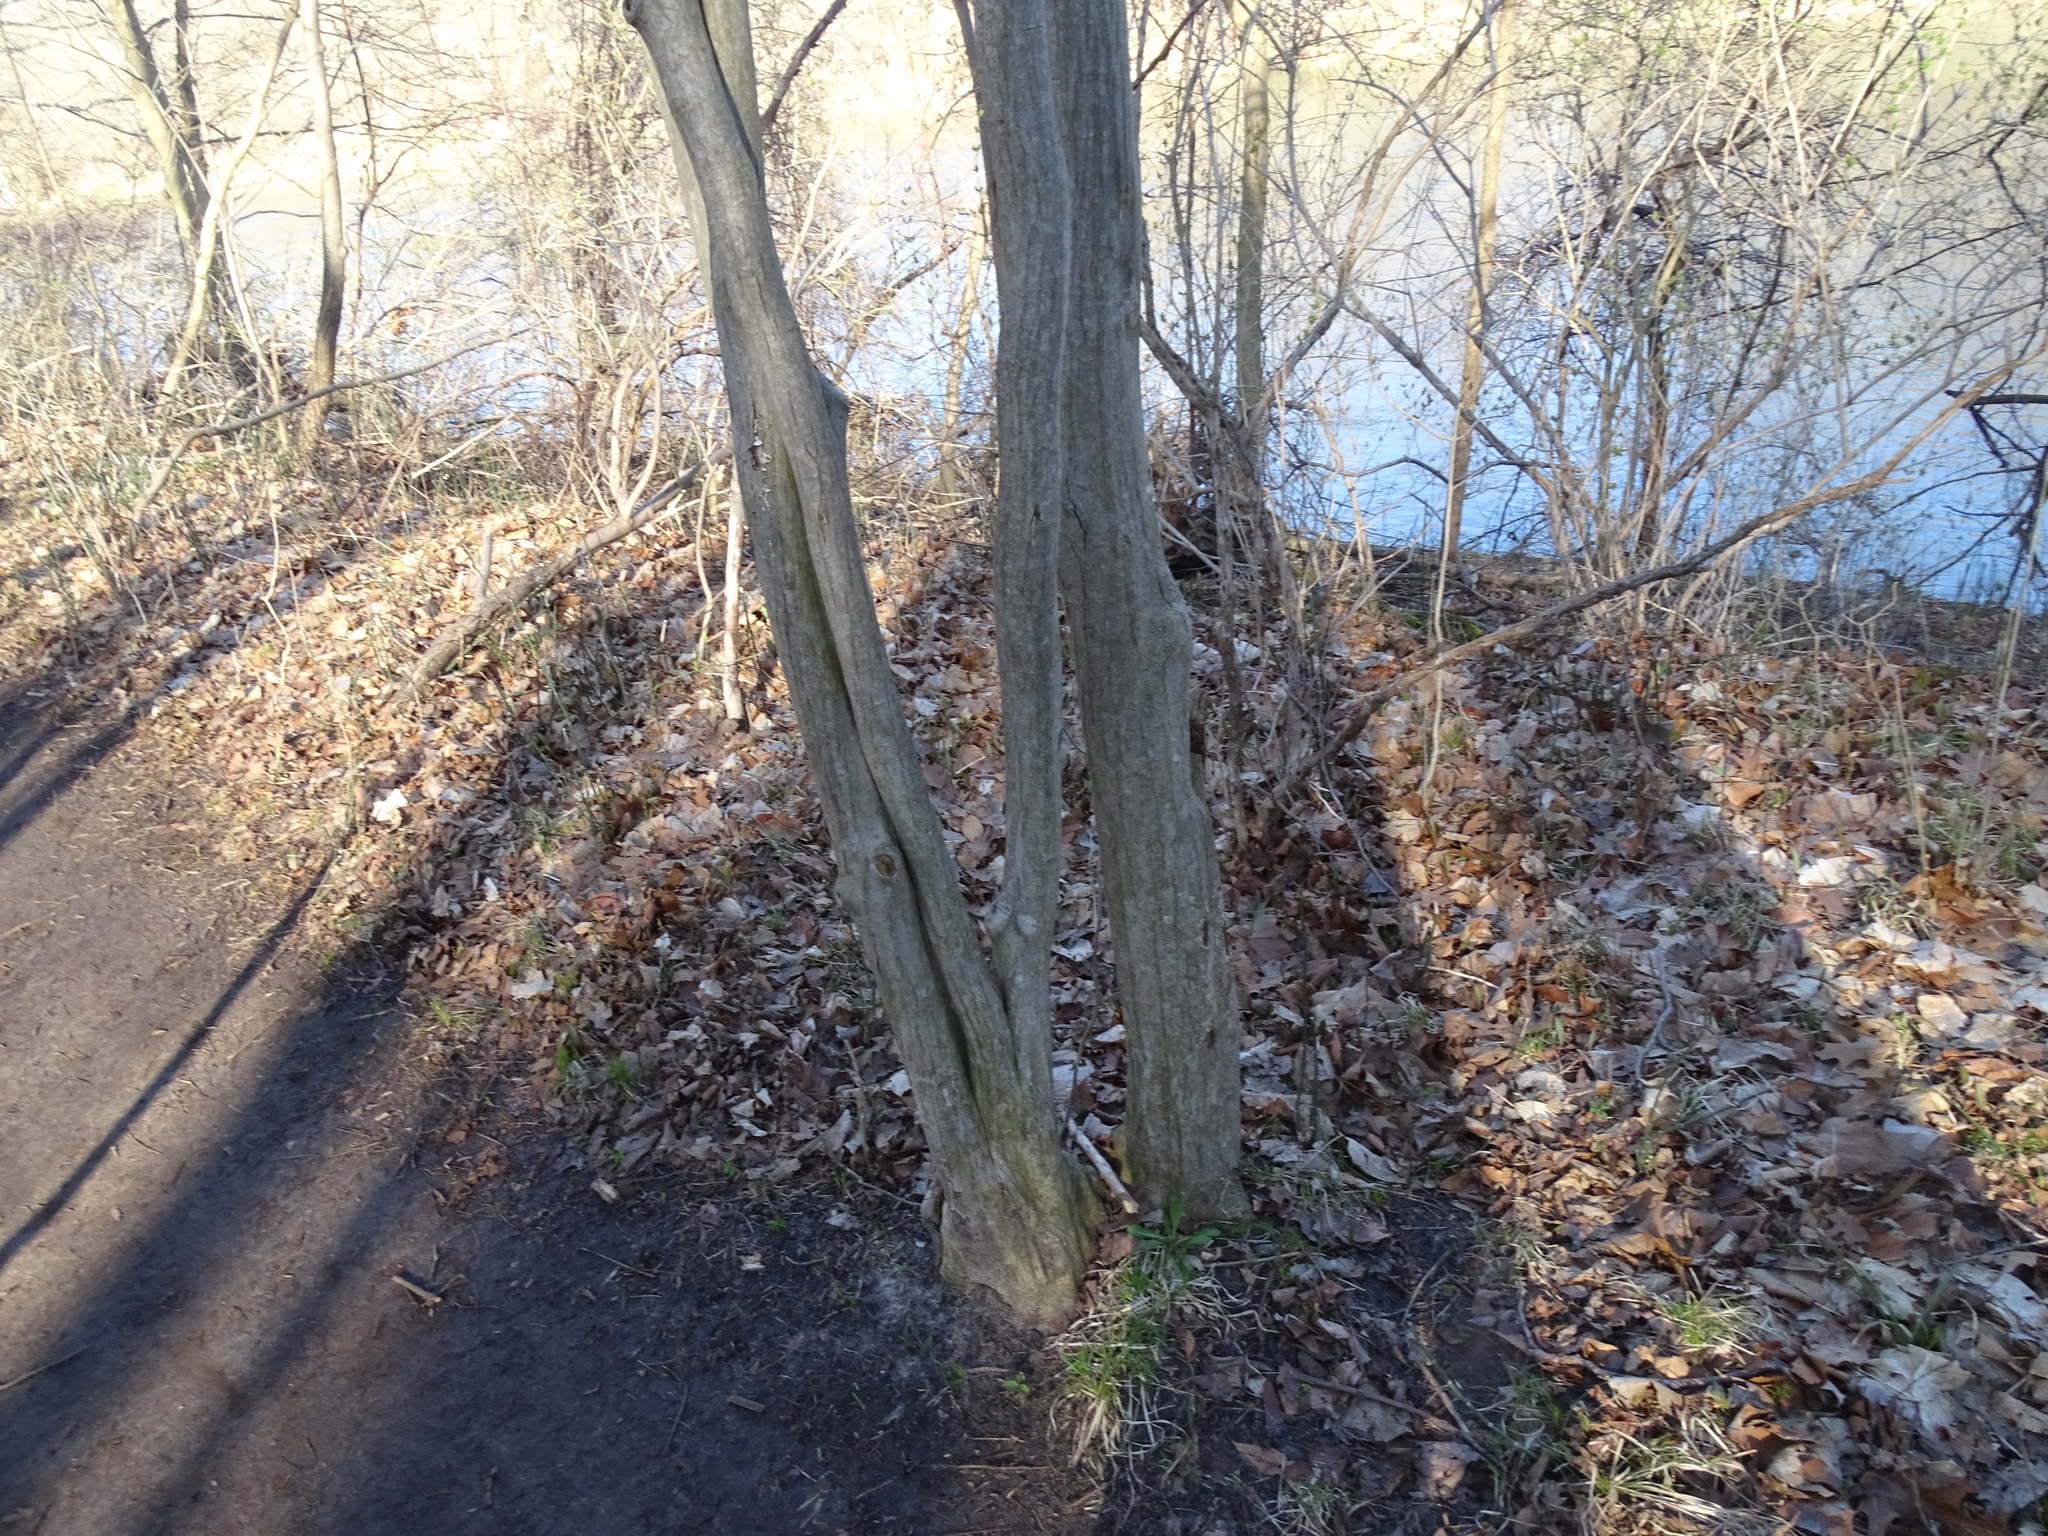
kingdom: Plantae
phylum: Tracheophyta
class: Magnoliopsida
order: Fagales
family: Betulaceae
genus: Carpinus
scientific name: Carpinus caroliniana
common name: American hornbeam
